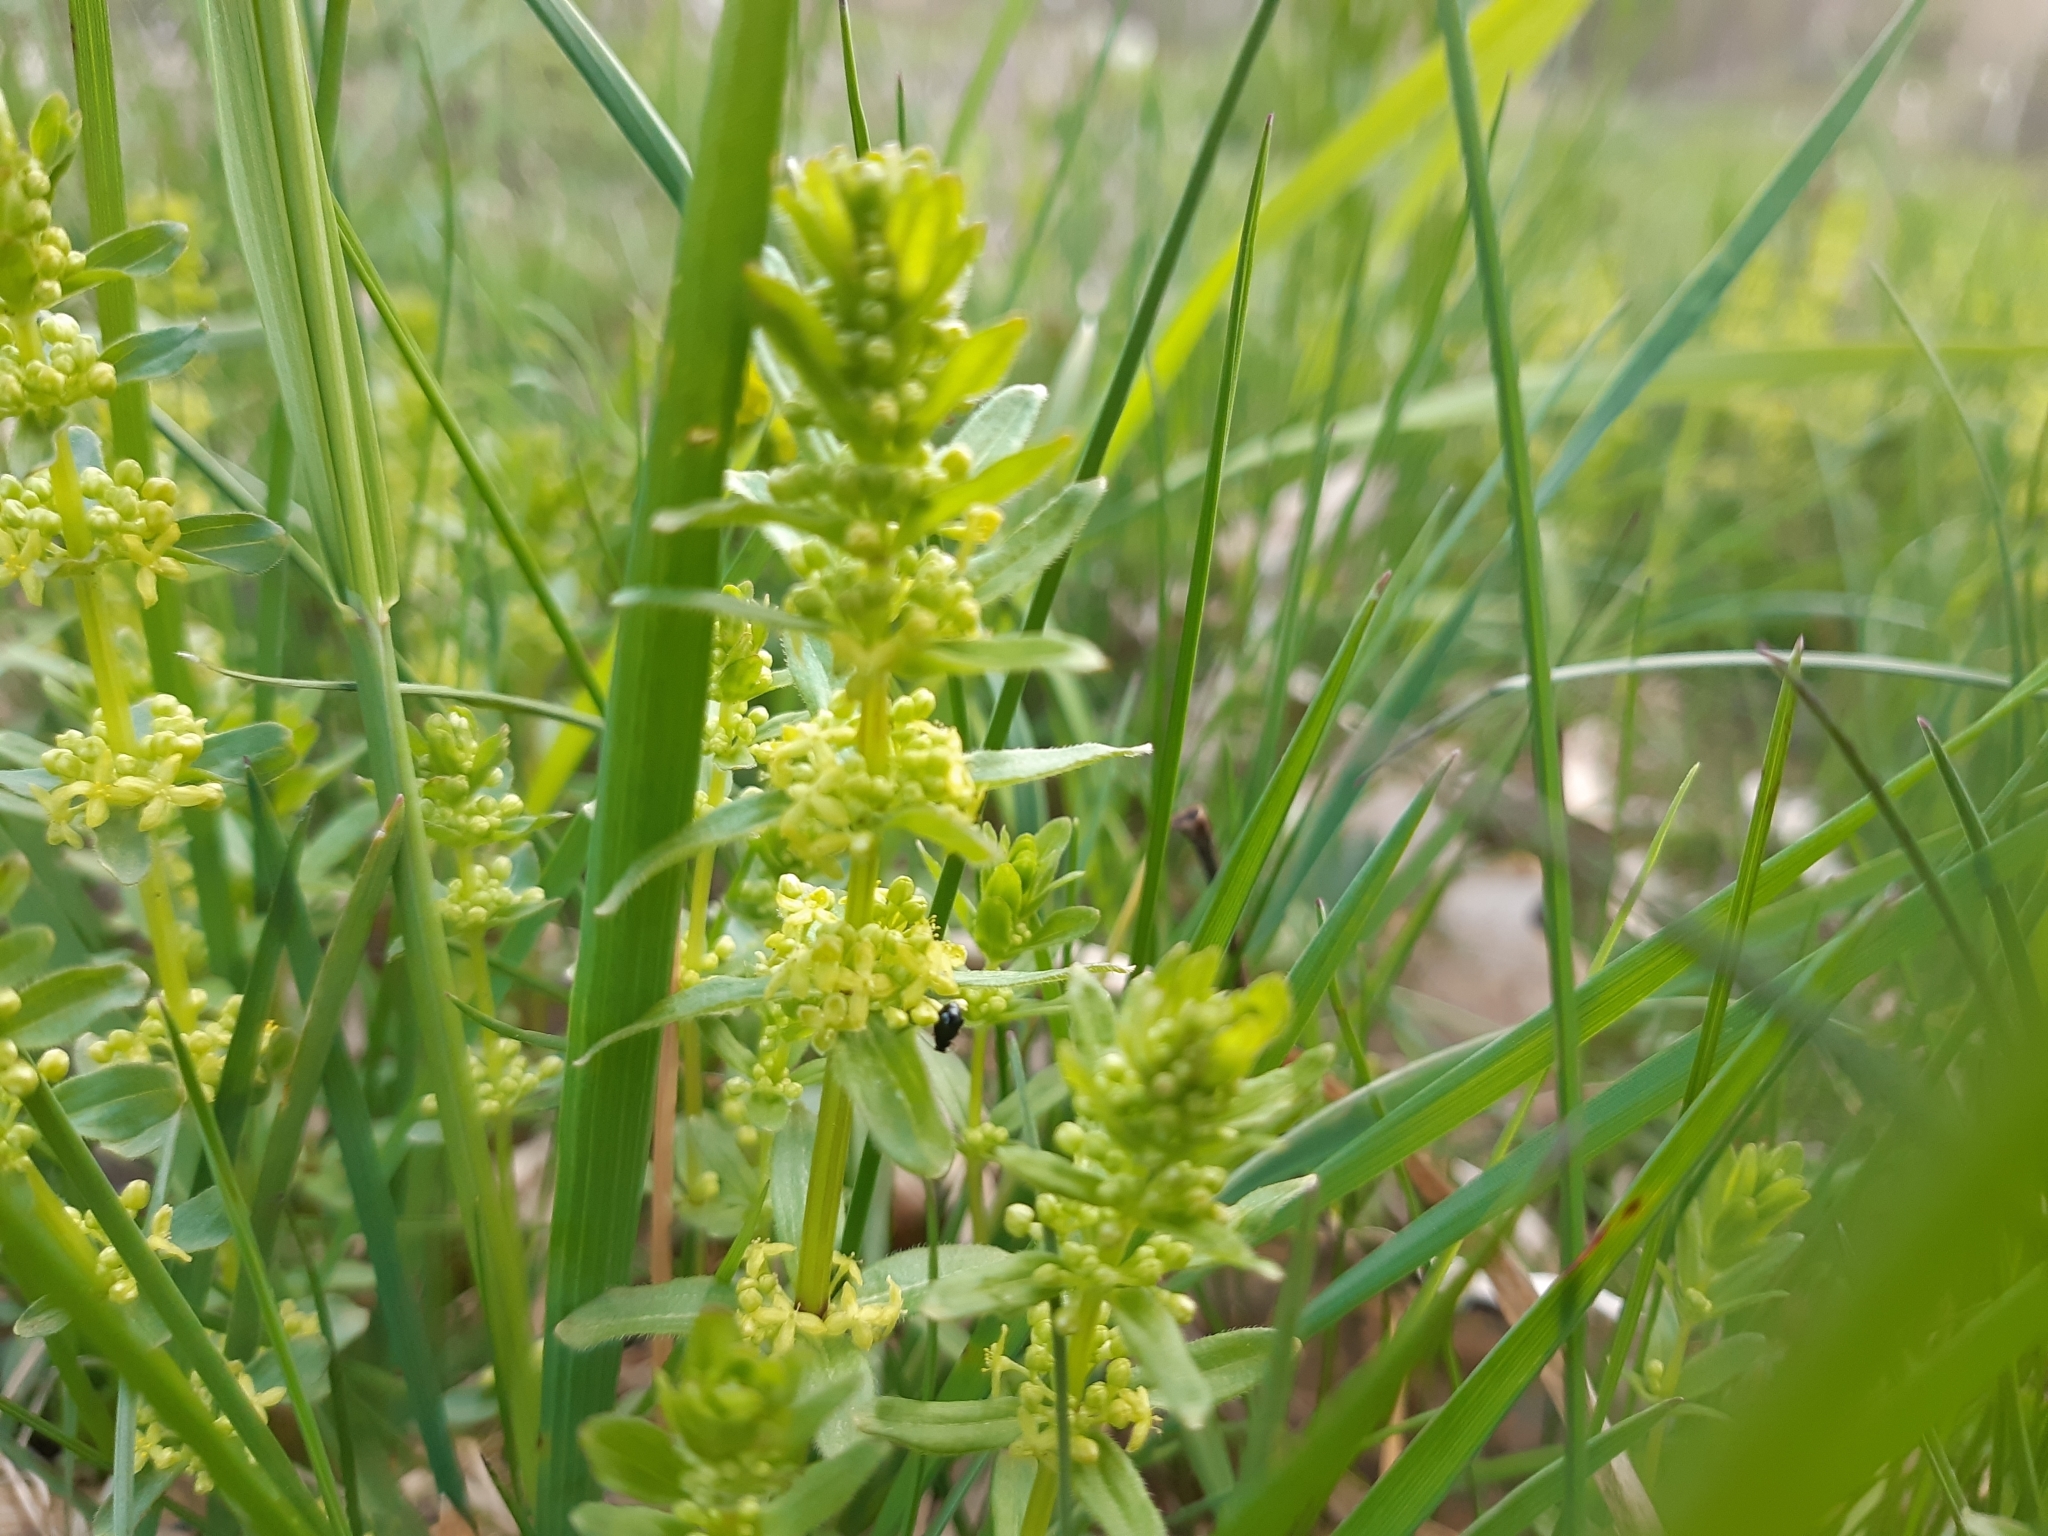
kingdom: Plantae
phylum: Tracheophyta
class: Magnoliopsida
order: Gentianales
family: Rubiaceae
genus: Cruciata
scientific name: Cruciata glabra
